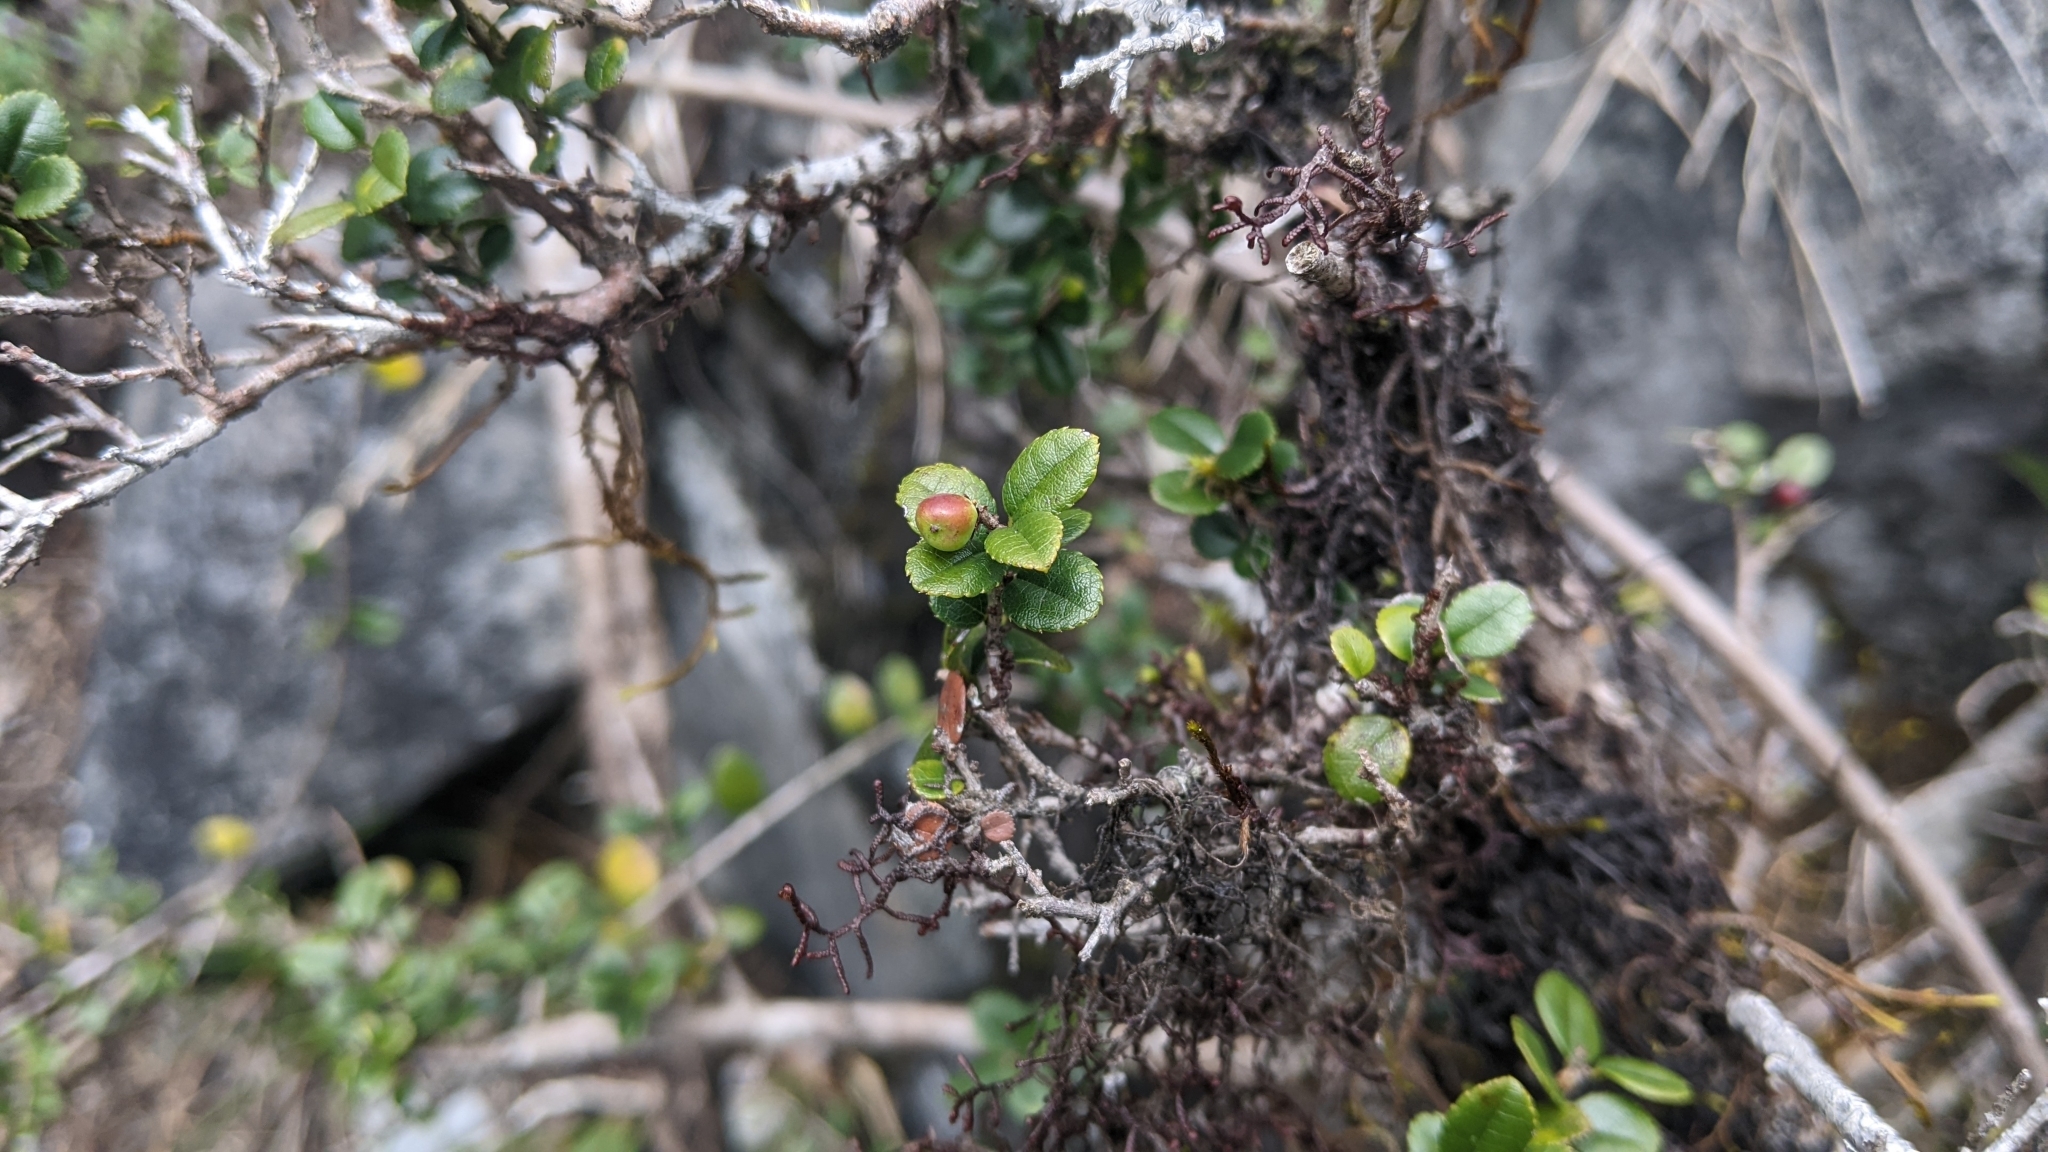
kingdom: Plantae
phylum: Tracheophyta
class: Magnoliopsida
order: Rosales
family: Rhamnaceae
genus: Sageretia
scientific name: Sageretia thea
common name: Pauper's-tea
